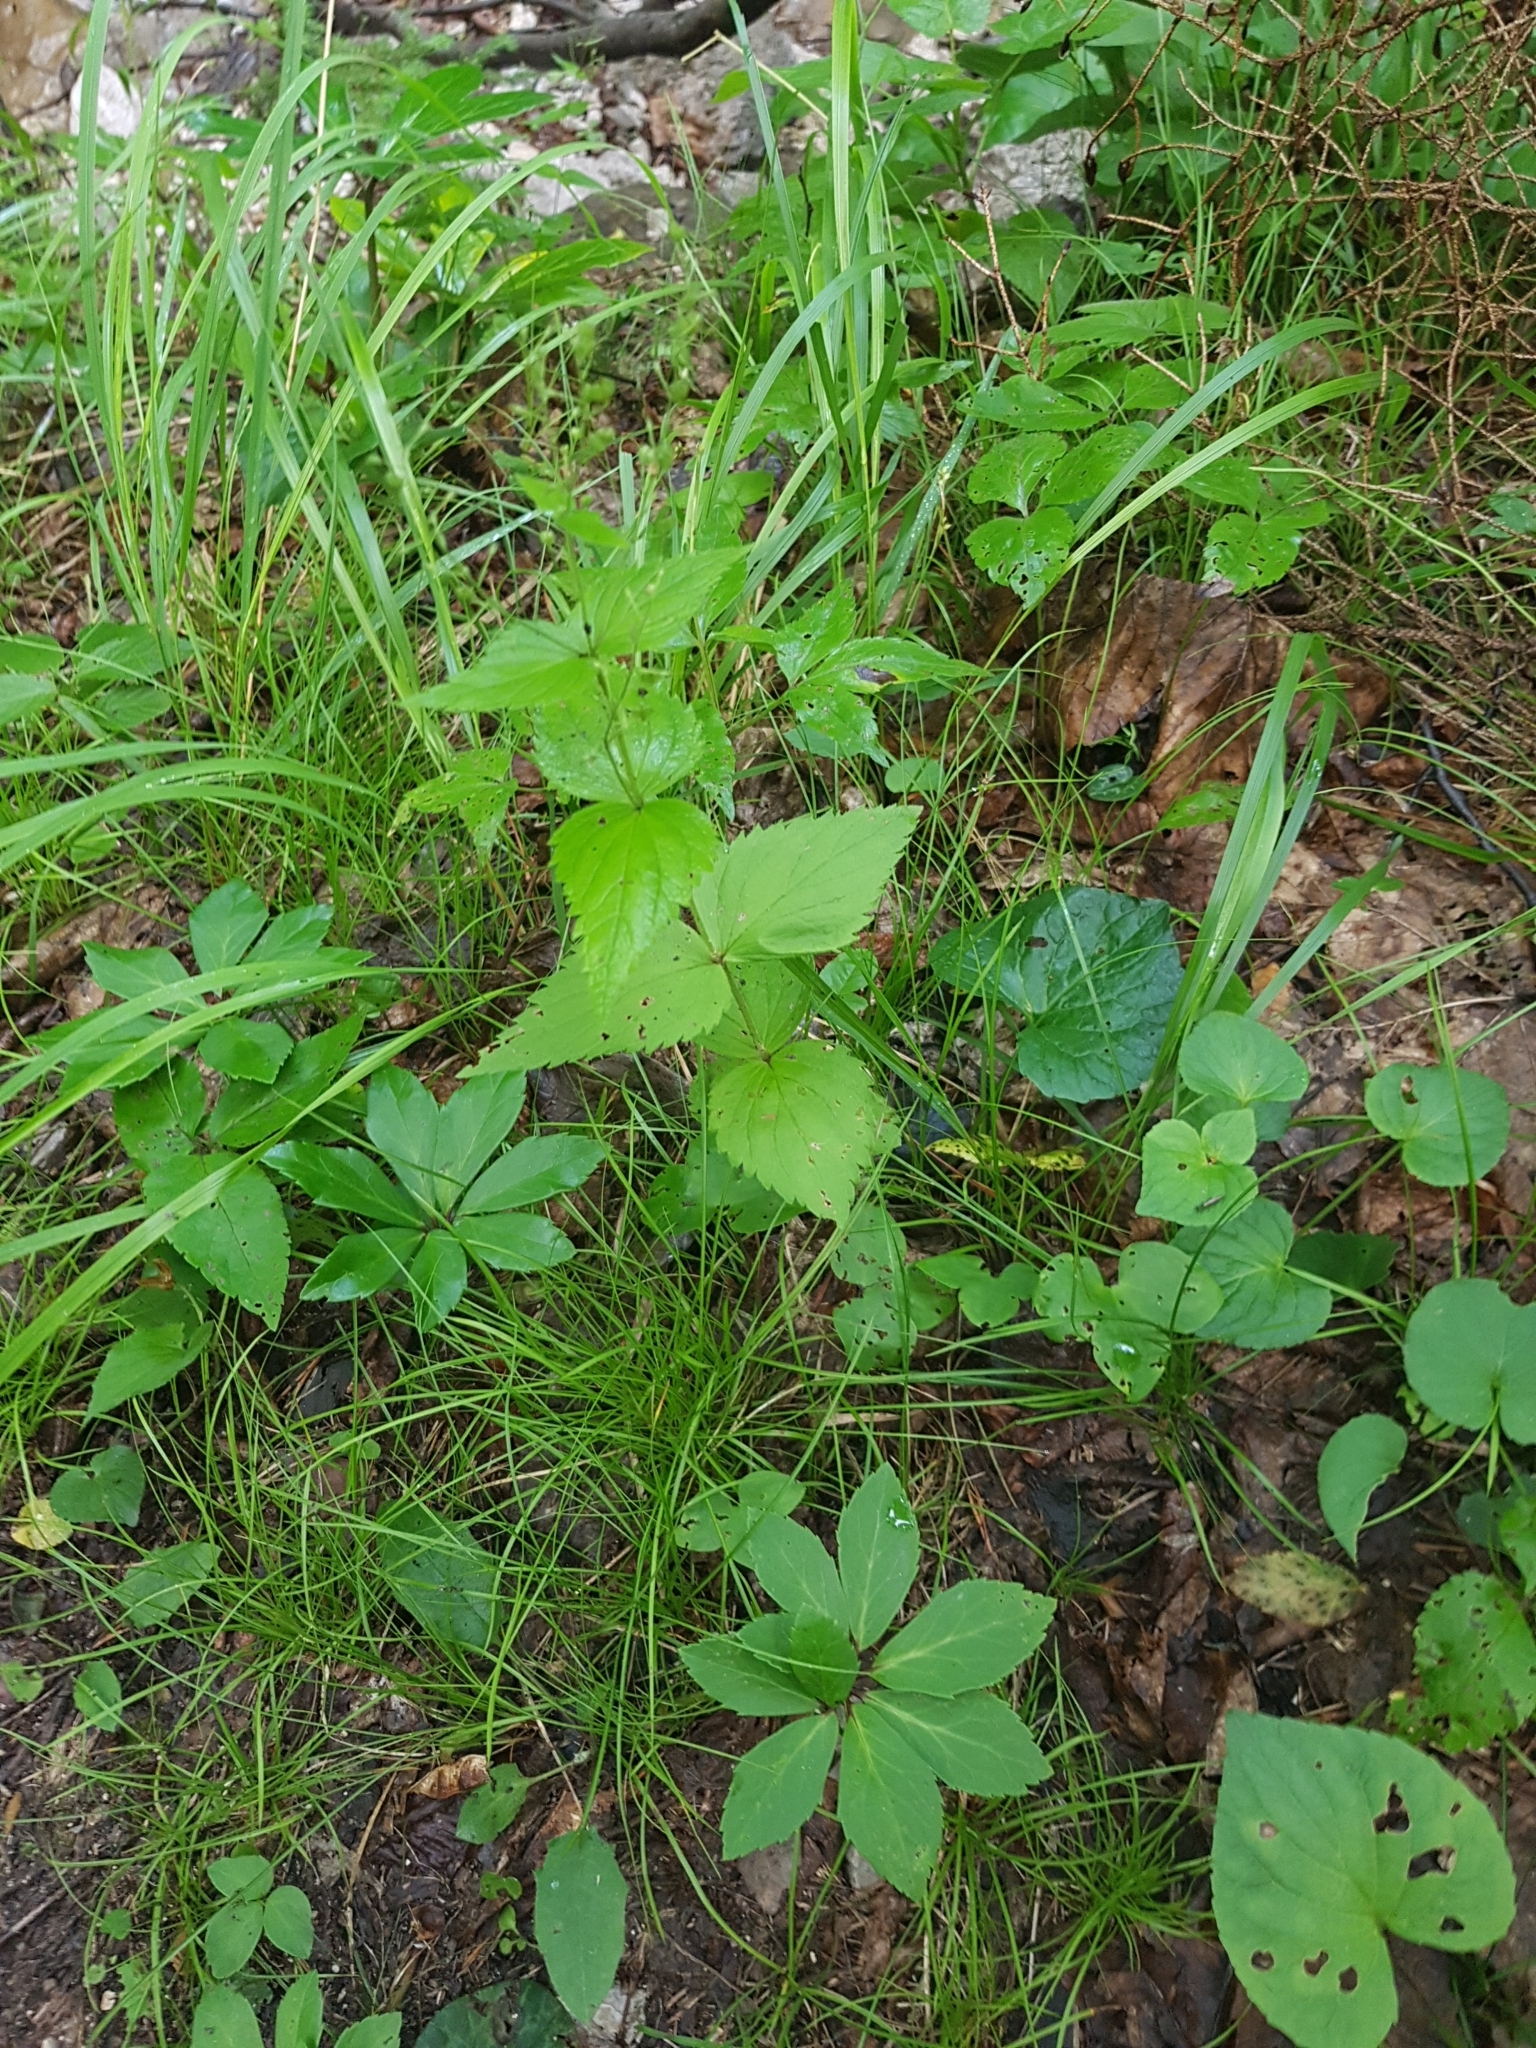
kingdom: Plantae
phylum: Tracheophyta
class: Magnoliopsida
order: Lamiales
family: Plantaginaceae
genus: Veronica
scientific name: Veronica urticifolia
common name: Nettle-leaf speedwell
